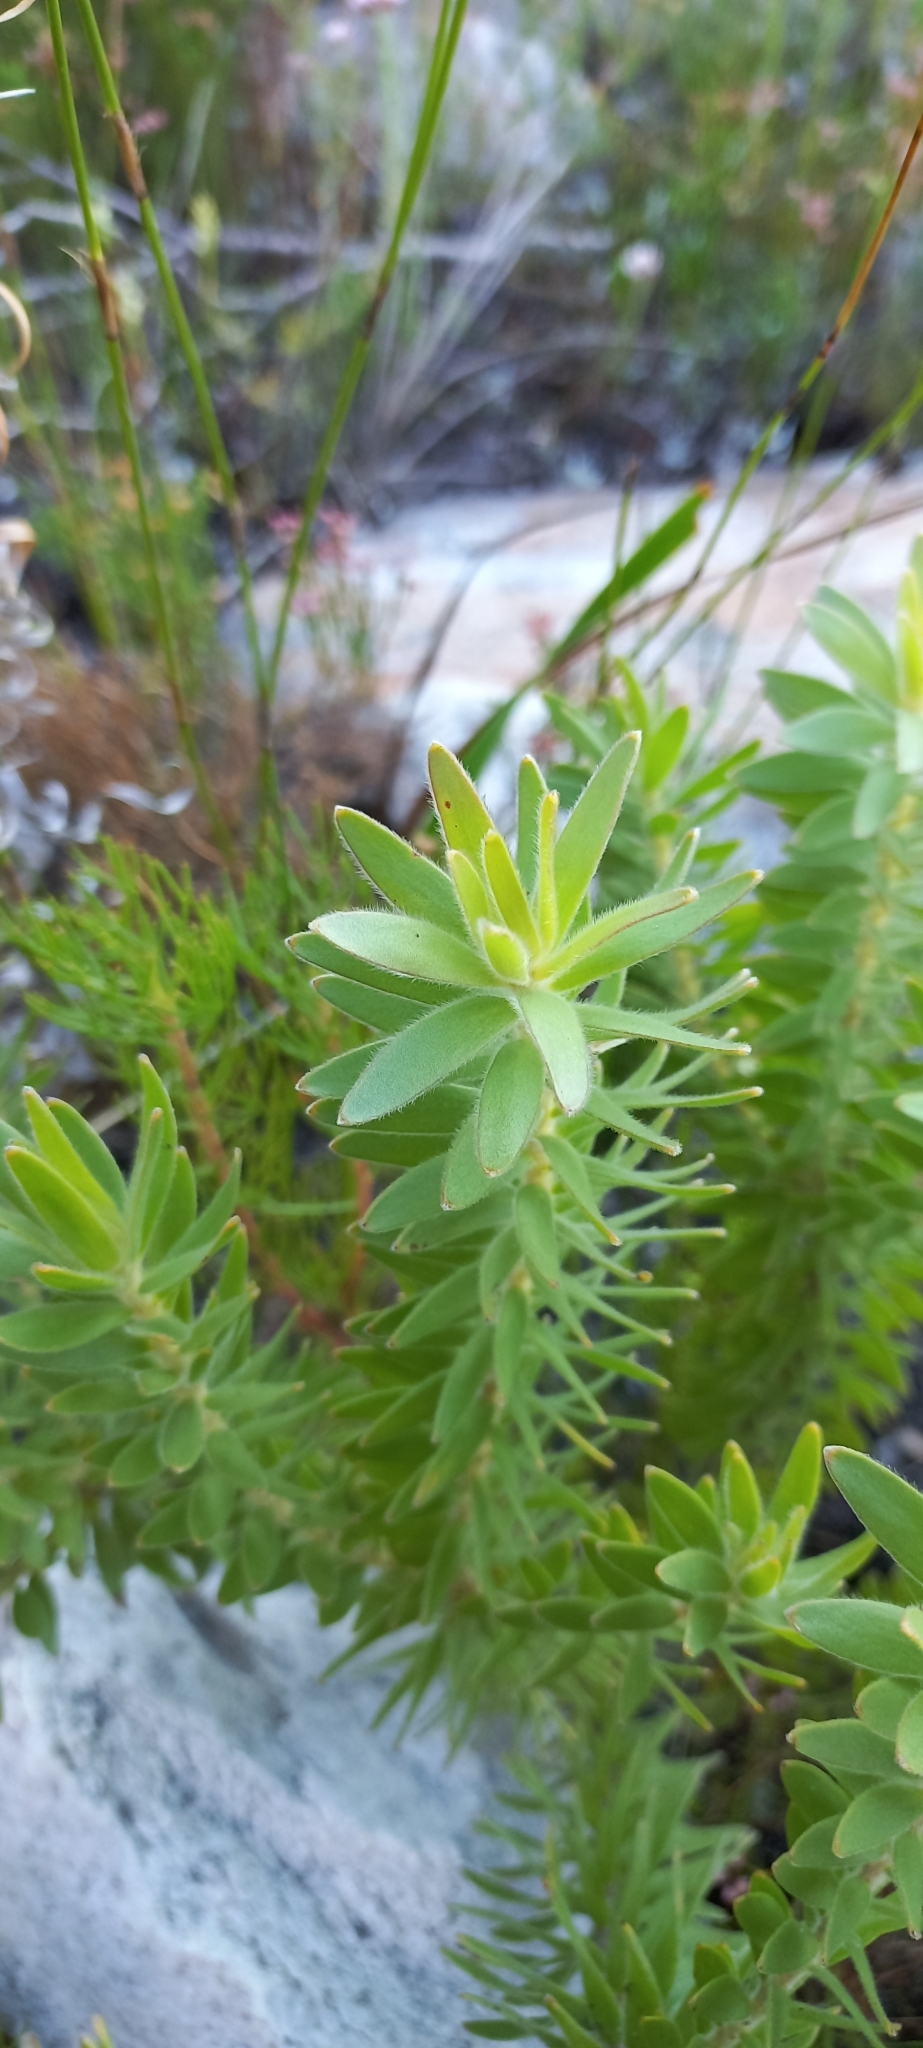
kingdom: Plantae
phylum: Tracheophyta
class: Magnoliopsida
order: Proteales
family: Proteaceae
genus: Diastella
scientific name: Diastella thymelaeoides
